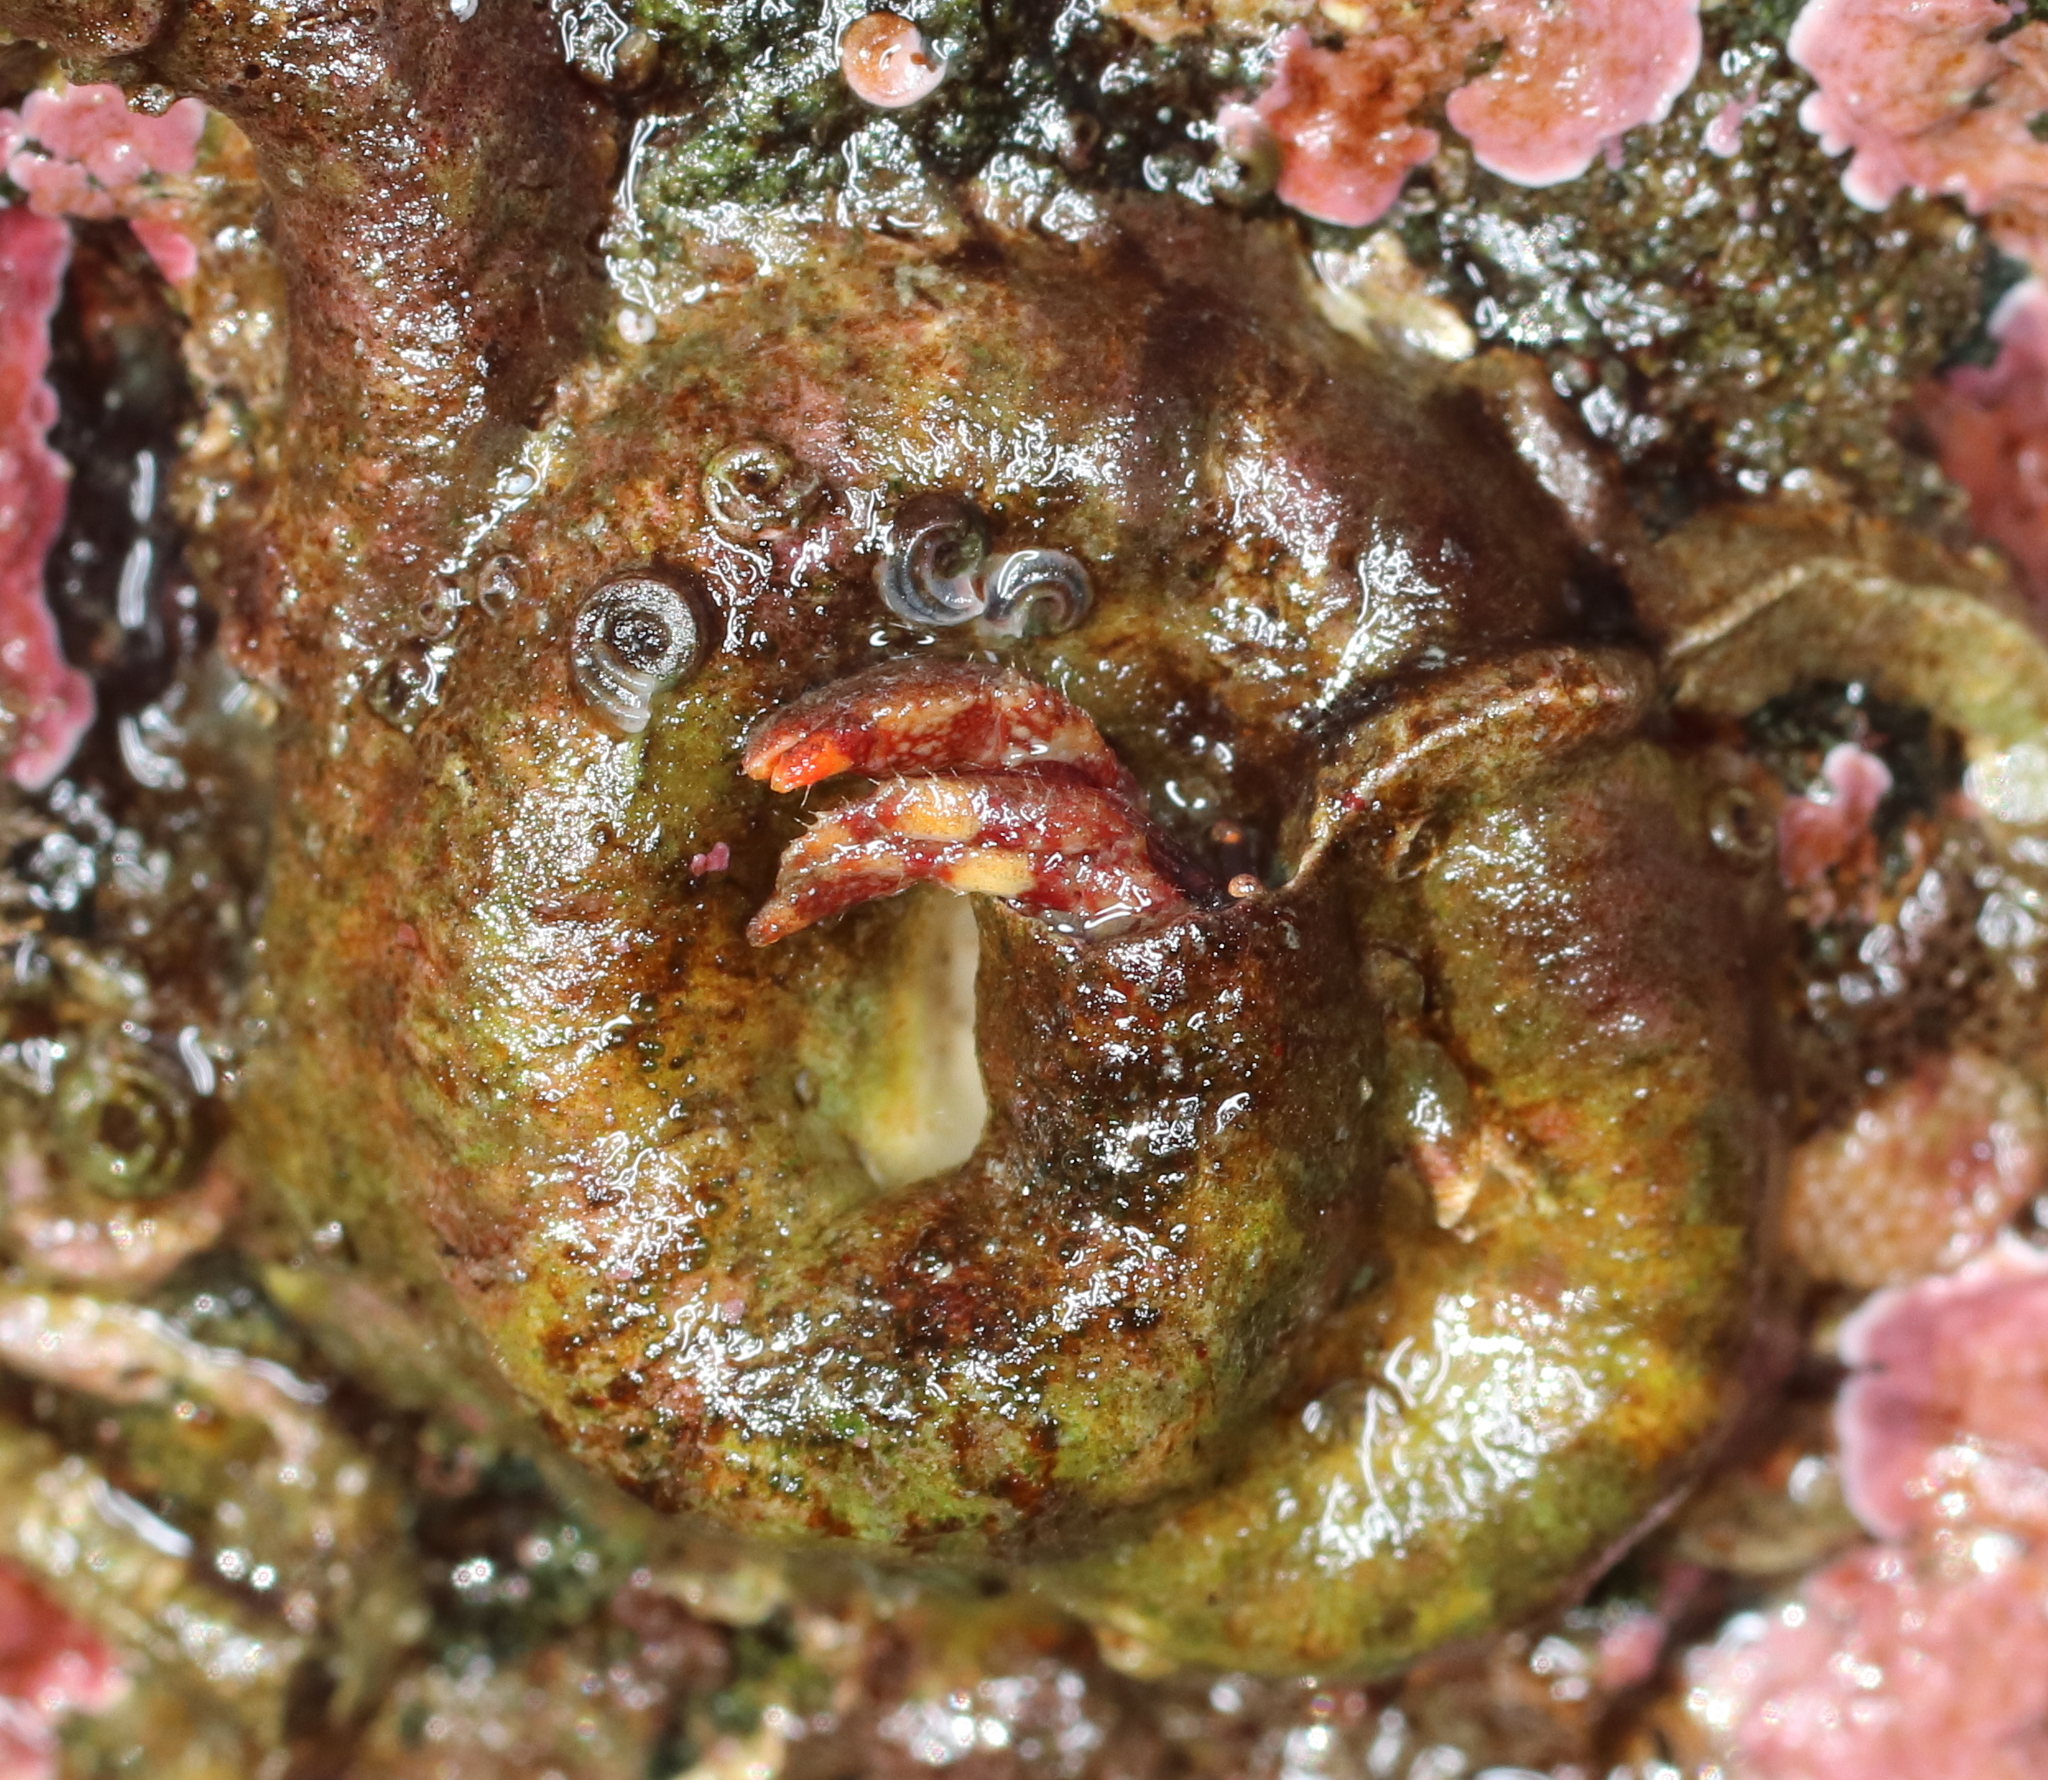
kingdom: Animalia
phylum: Arthropoda
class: Malacostraca
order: Decapoda
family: Paguridae
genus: Discorsopagurus
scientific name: Discorsopagurus schmitti
